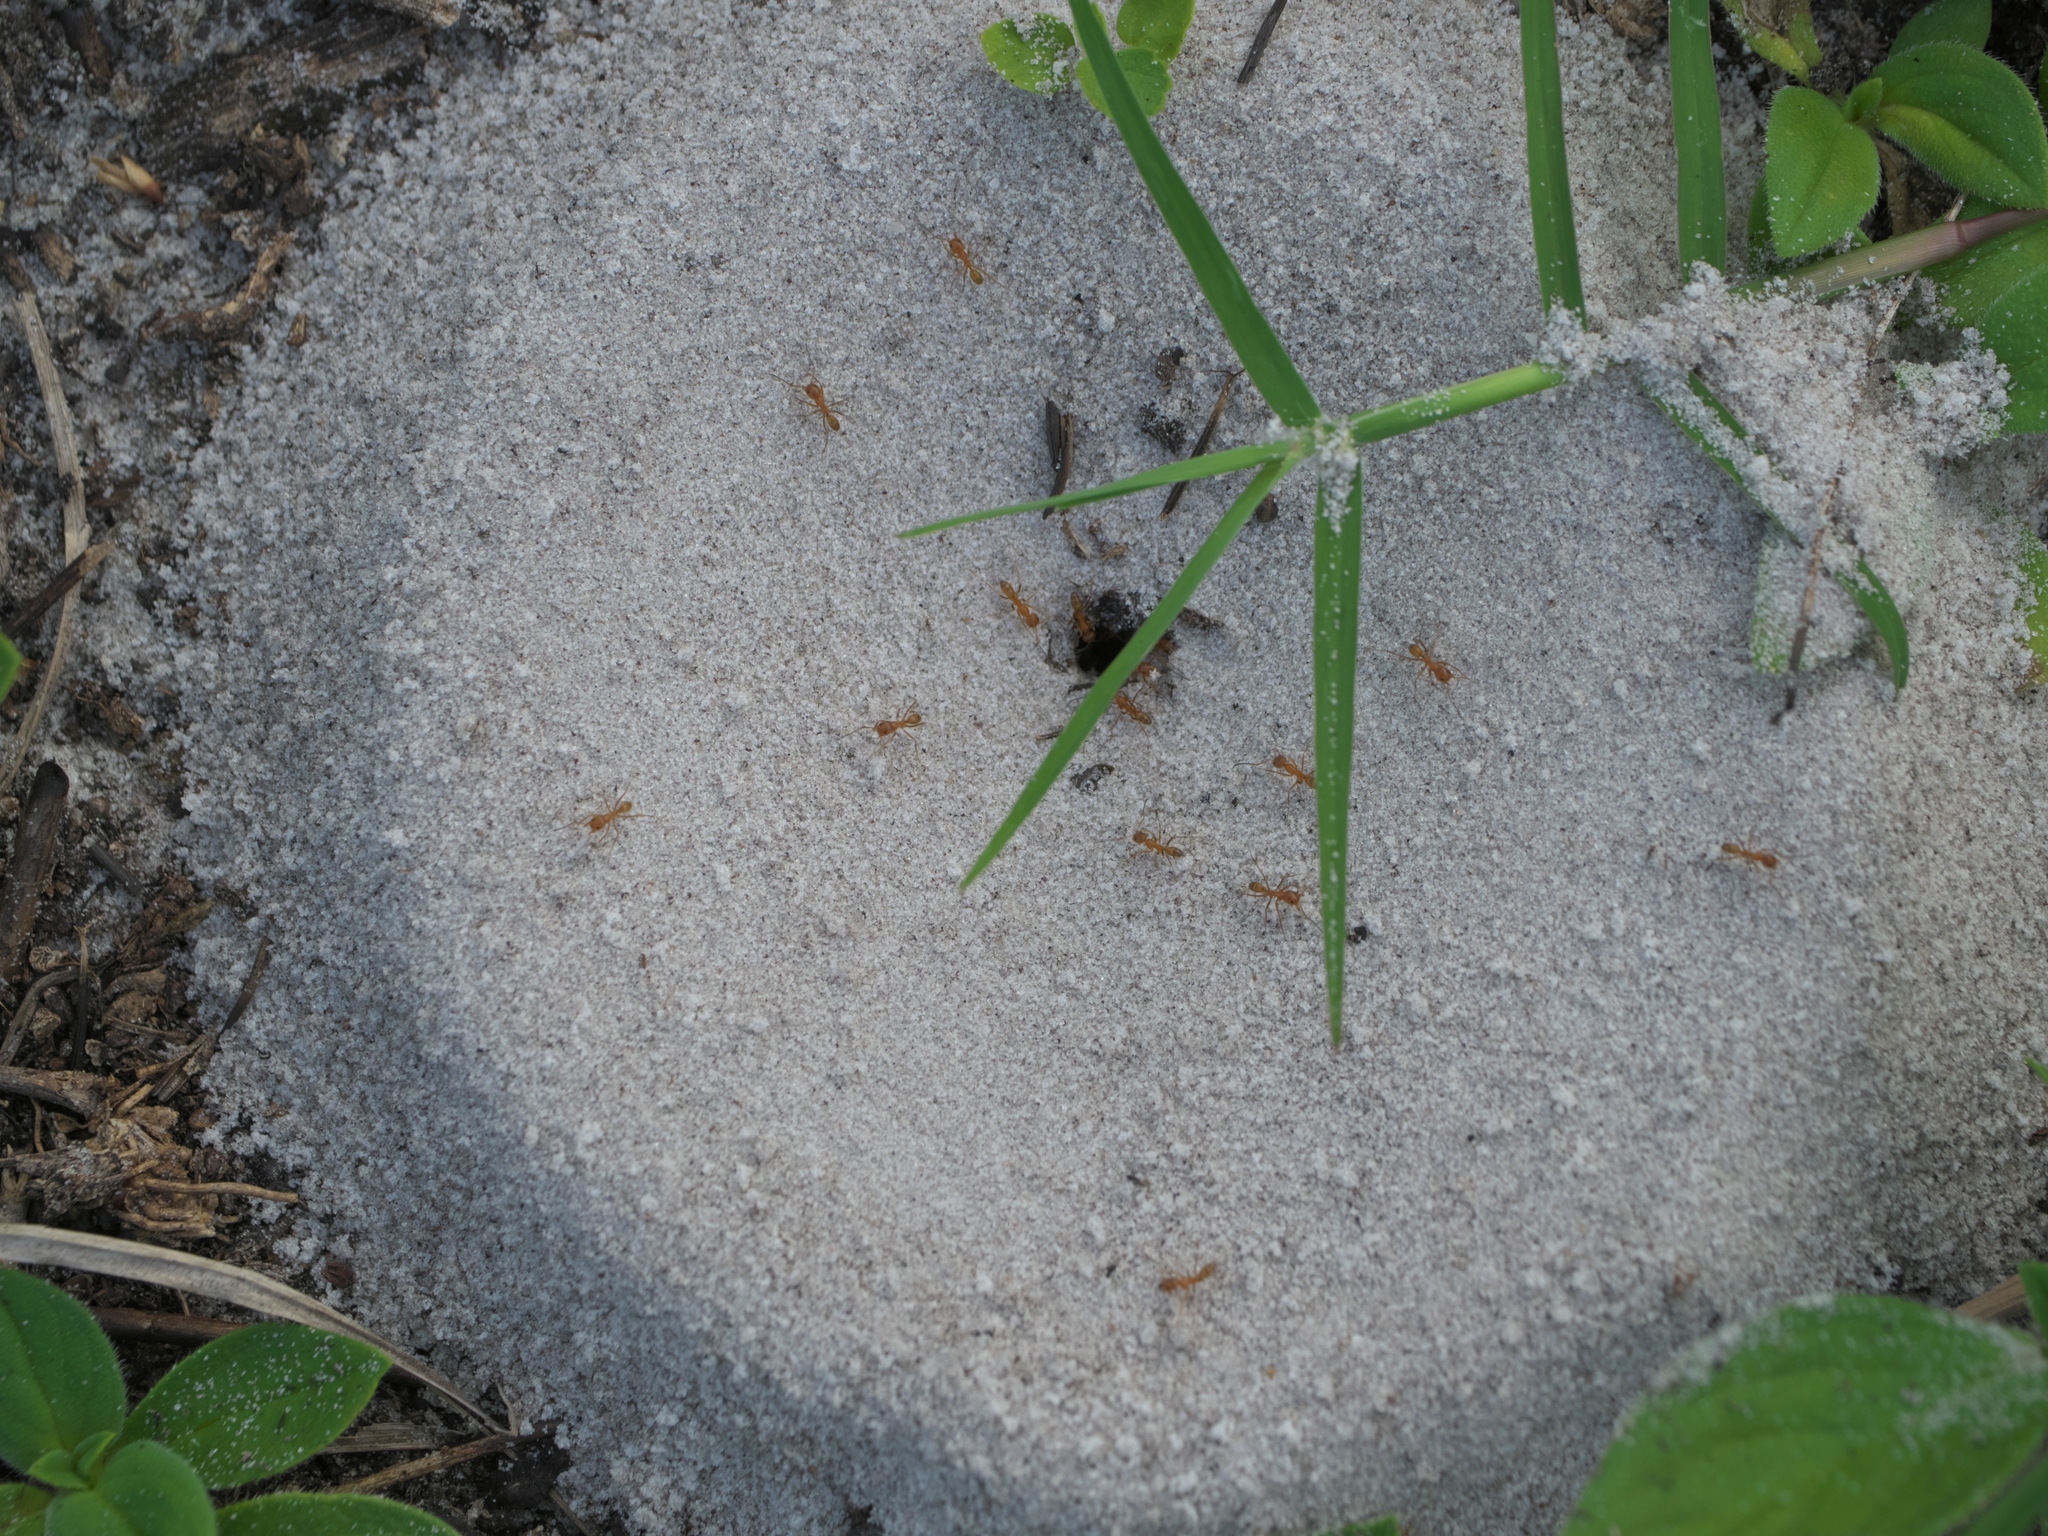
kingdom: Animalia
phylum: Arthropoda
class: Insecta
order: Hymenoptera
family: Formicidae
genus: Dorymyrmex
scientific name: Dorymyrmex bureni
